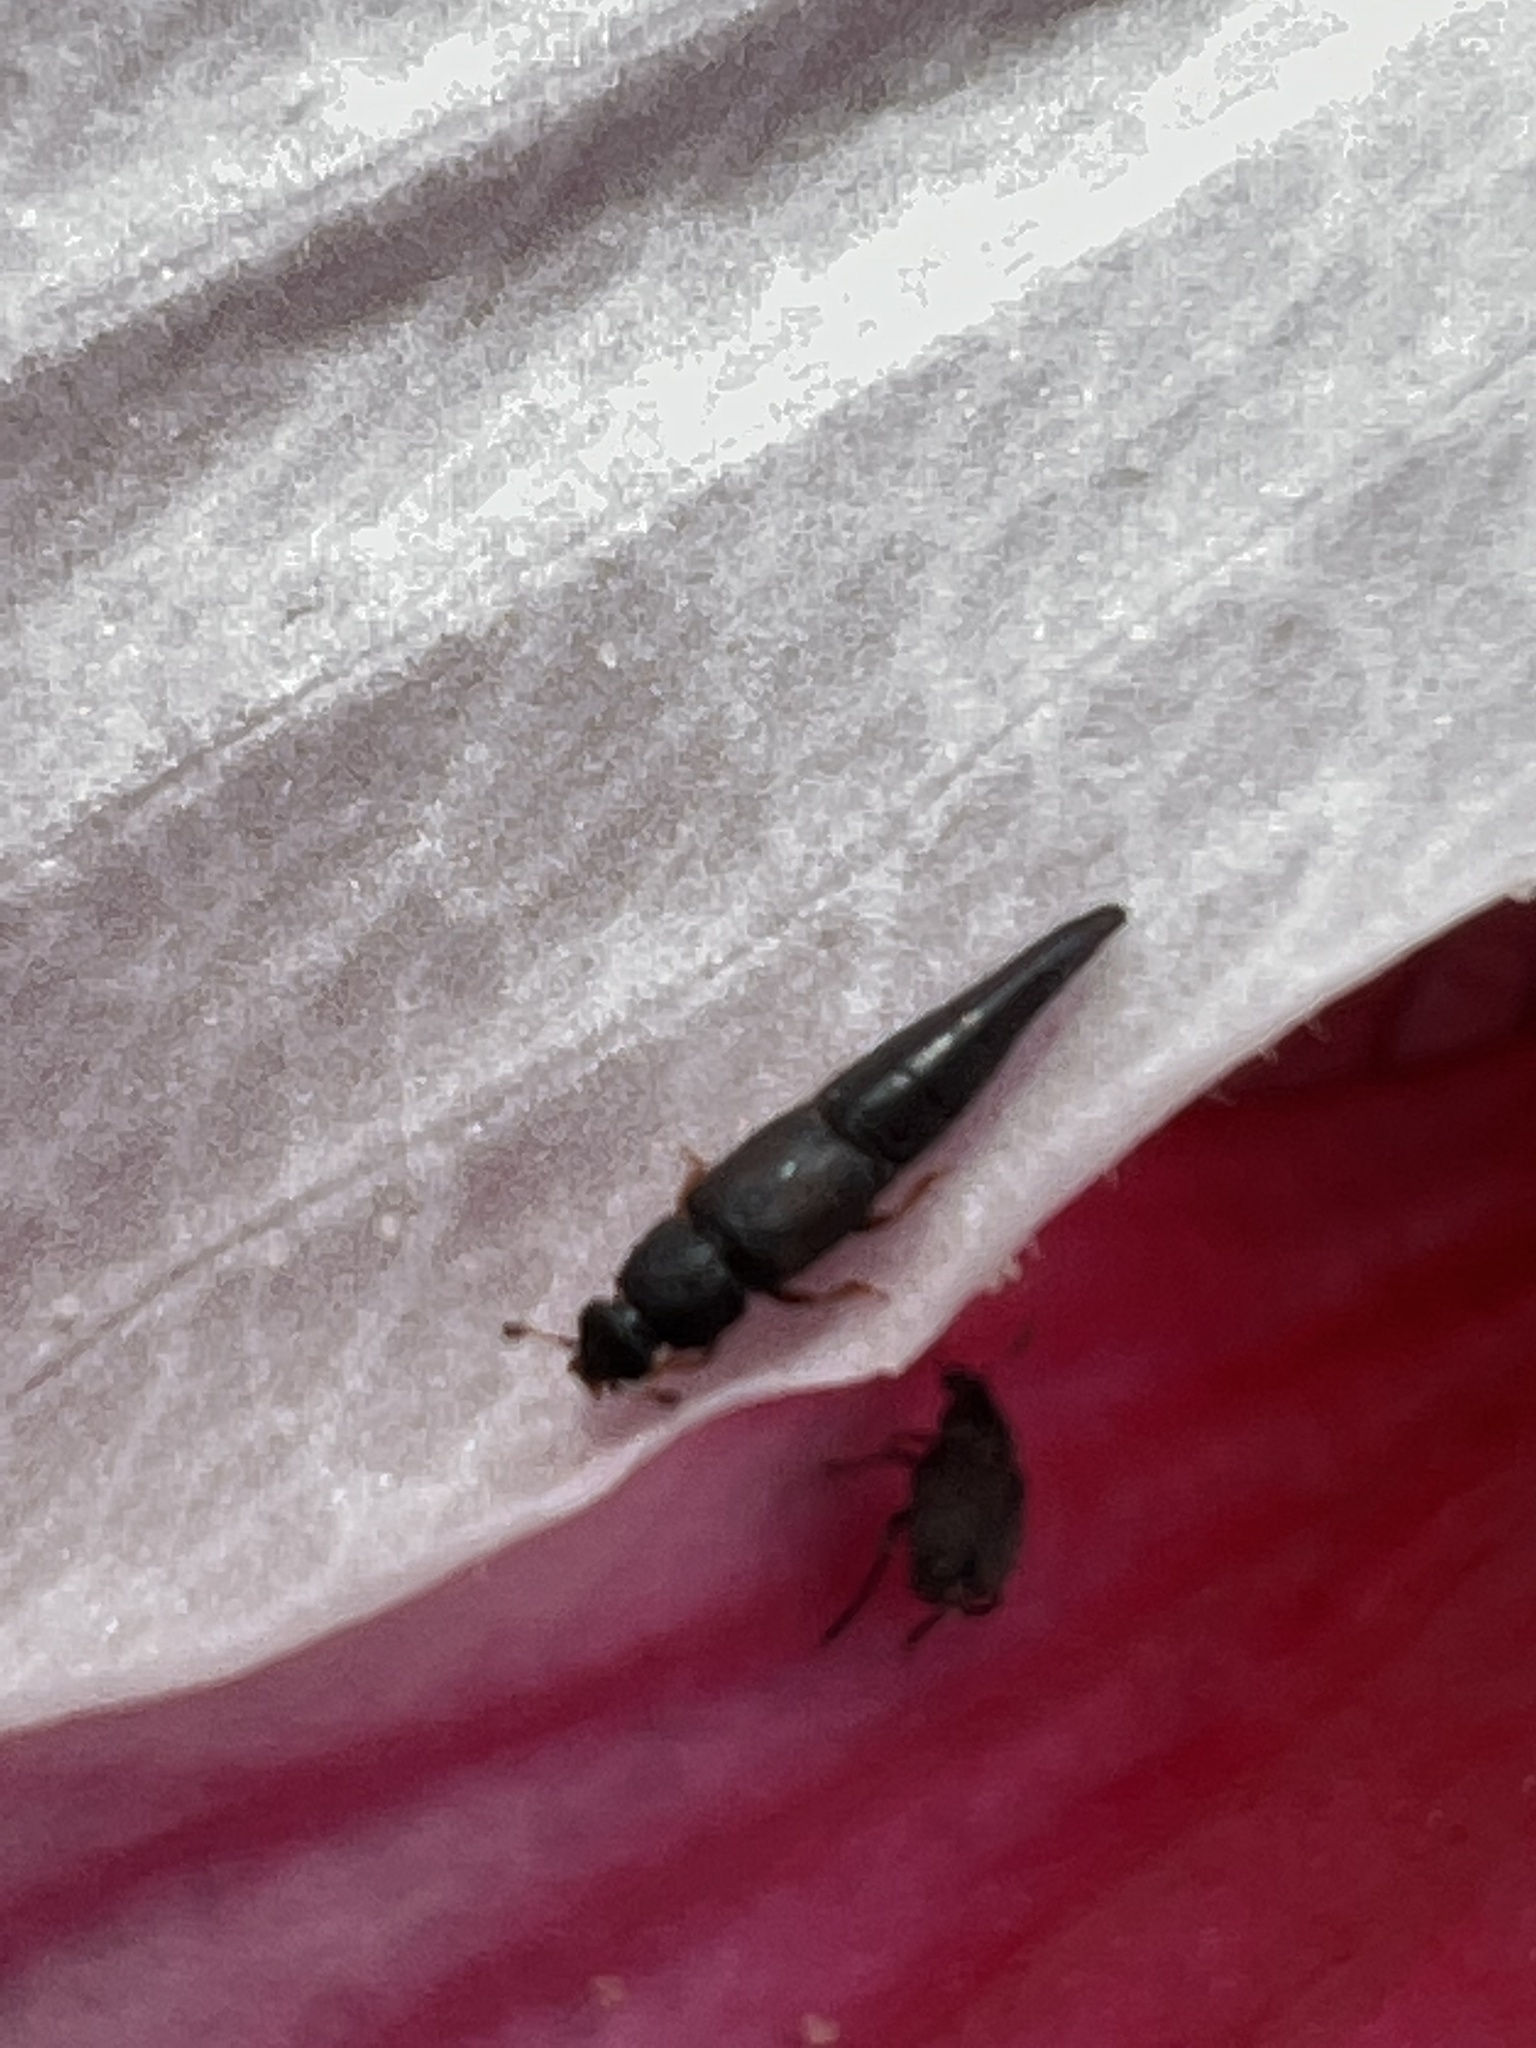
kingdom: Animalia
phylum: Arthropoda
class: Insecta
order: Coleoptera
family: Nitidulidae
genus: Conotelus
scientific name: Conotelus obscurus
